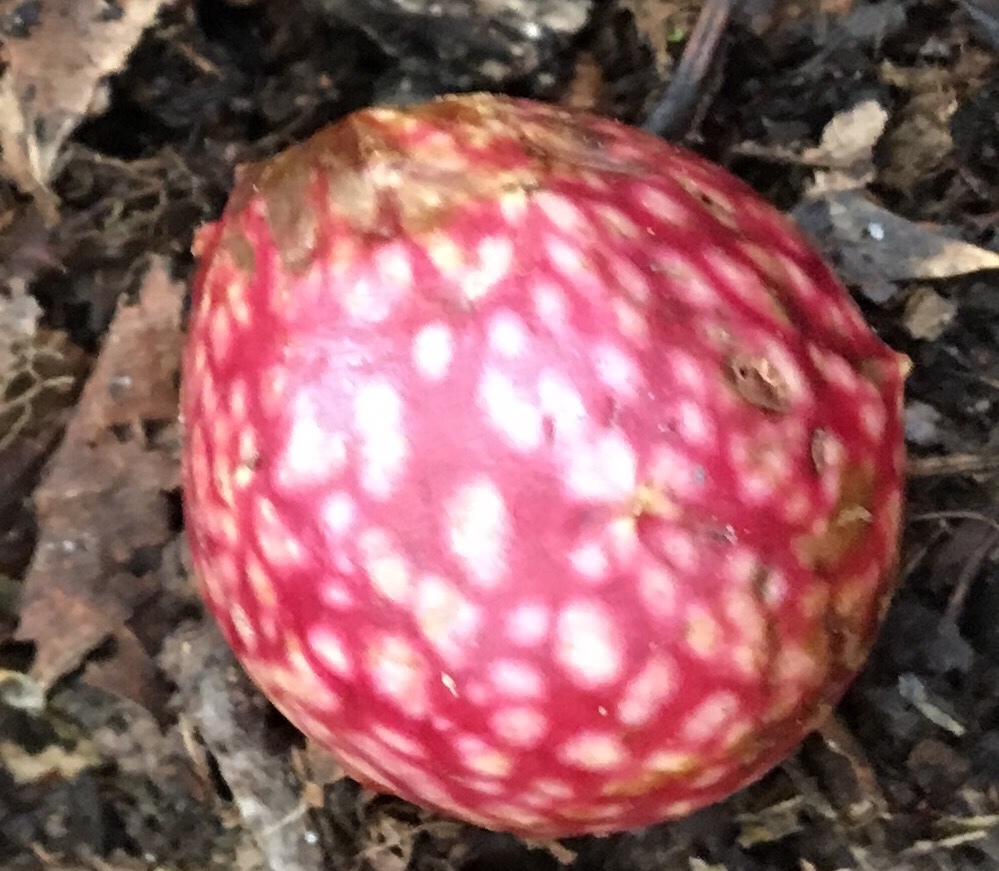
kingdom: Animalia
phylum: Arthropoda
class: Insecta
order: Hymenoptera
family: Cynipidae
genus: Amphibolips
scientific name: Amphibolips
